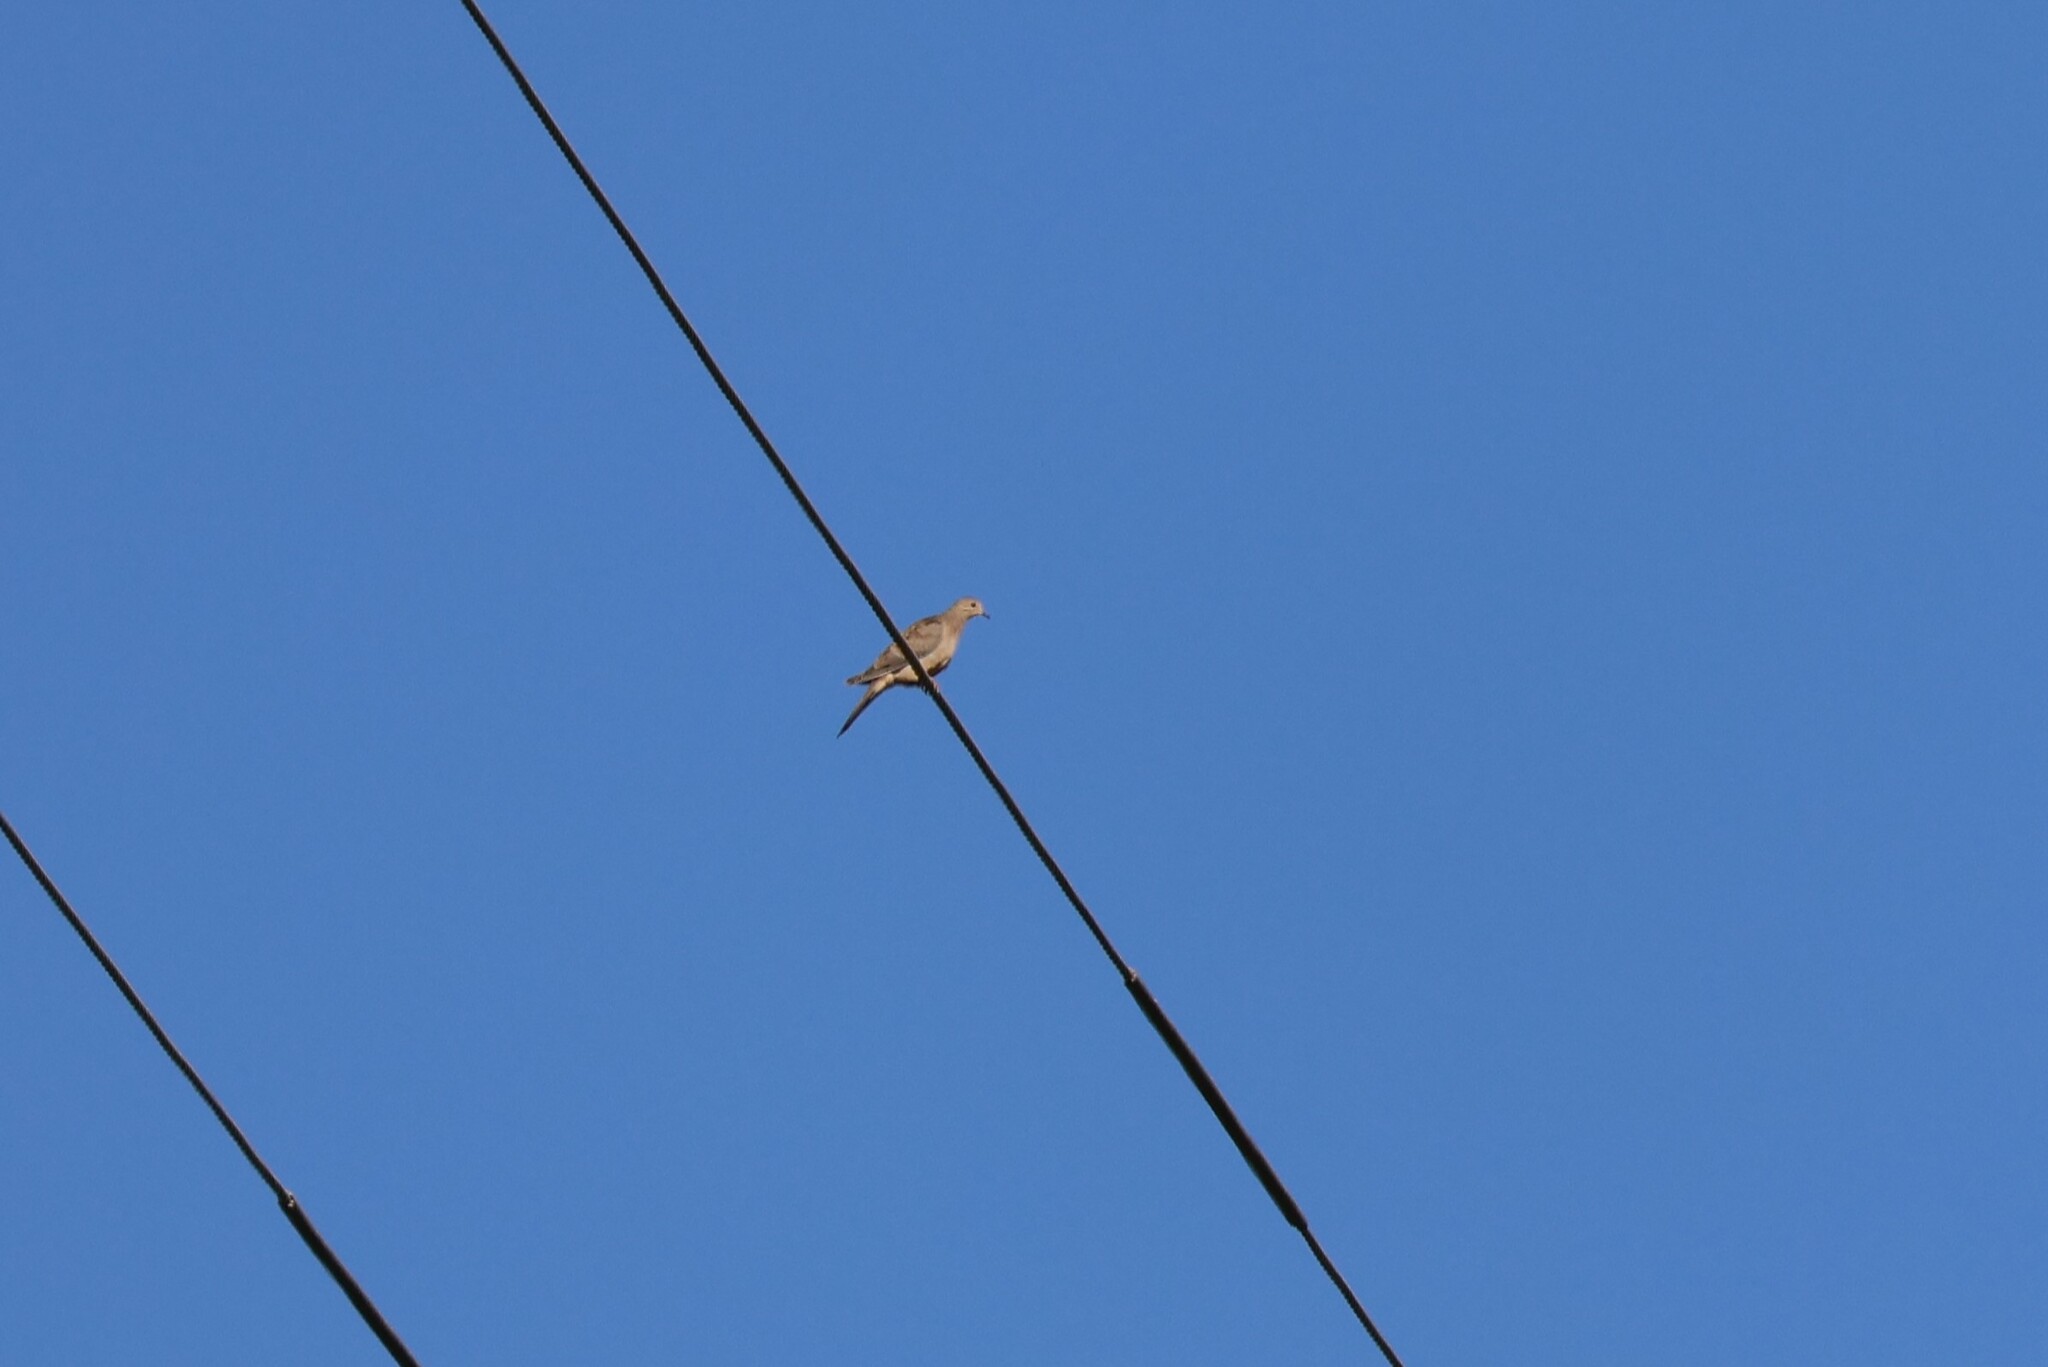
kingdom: Animalia
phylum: Chordata
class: Aves
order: Columbiformes
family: Columbidae
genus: Zenaida
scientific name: Zenaida macroura
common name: Mourning dove
